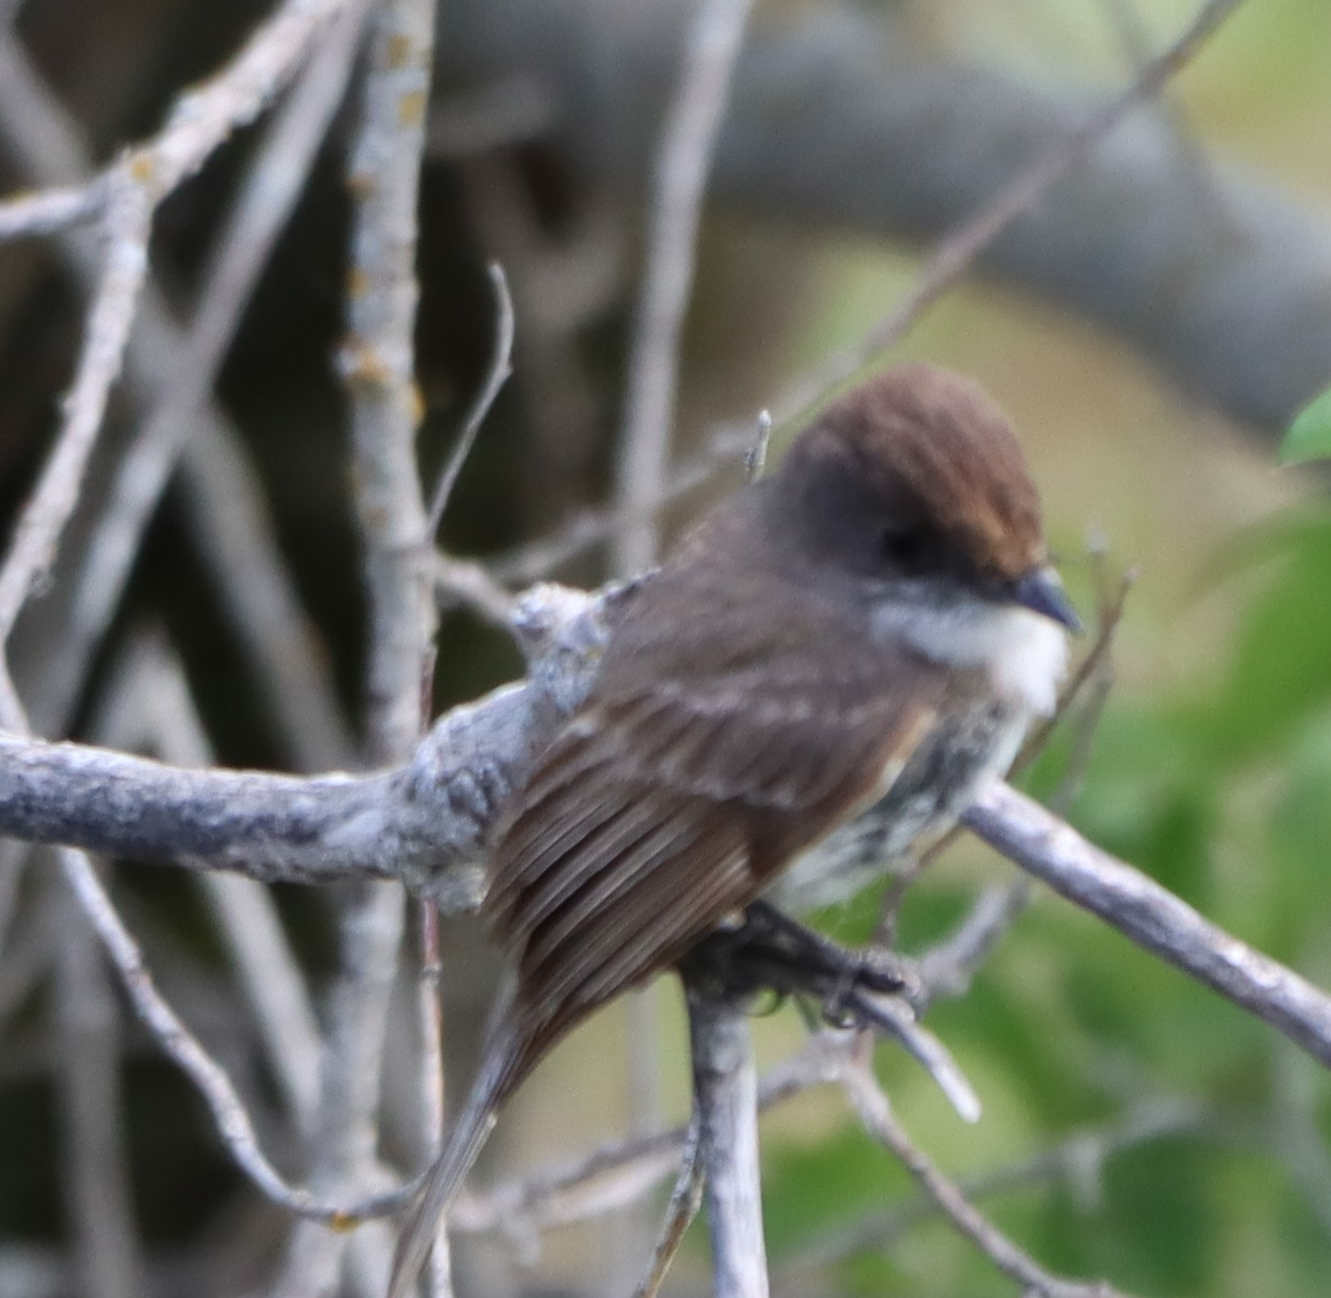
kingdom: Animalia
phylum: Chordata
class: Aves
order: Passeriformes
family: Tyrannidae
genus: Sayornis
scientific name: Sayornis phoebe
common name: Eastern phoebe
